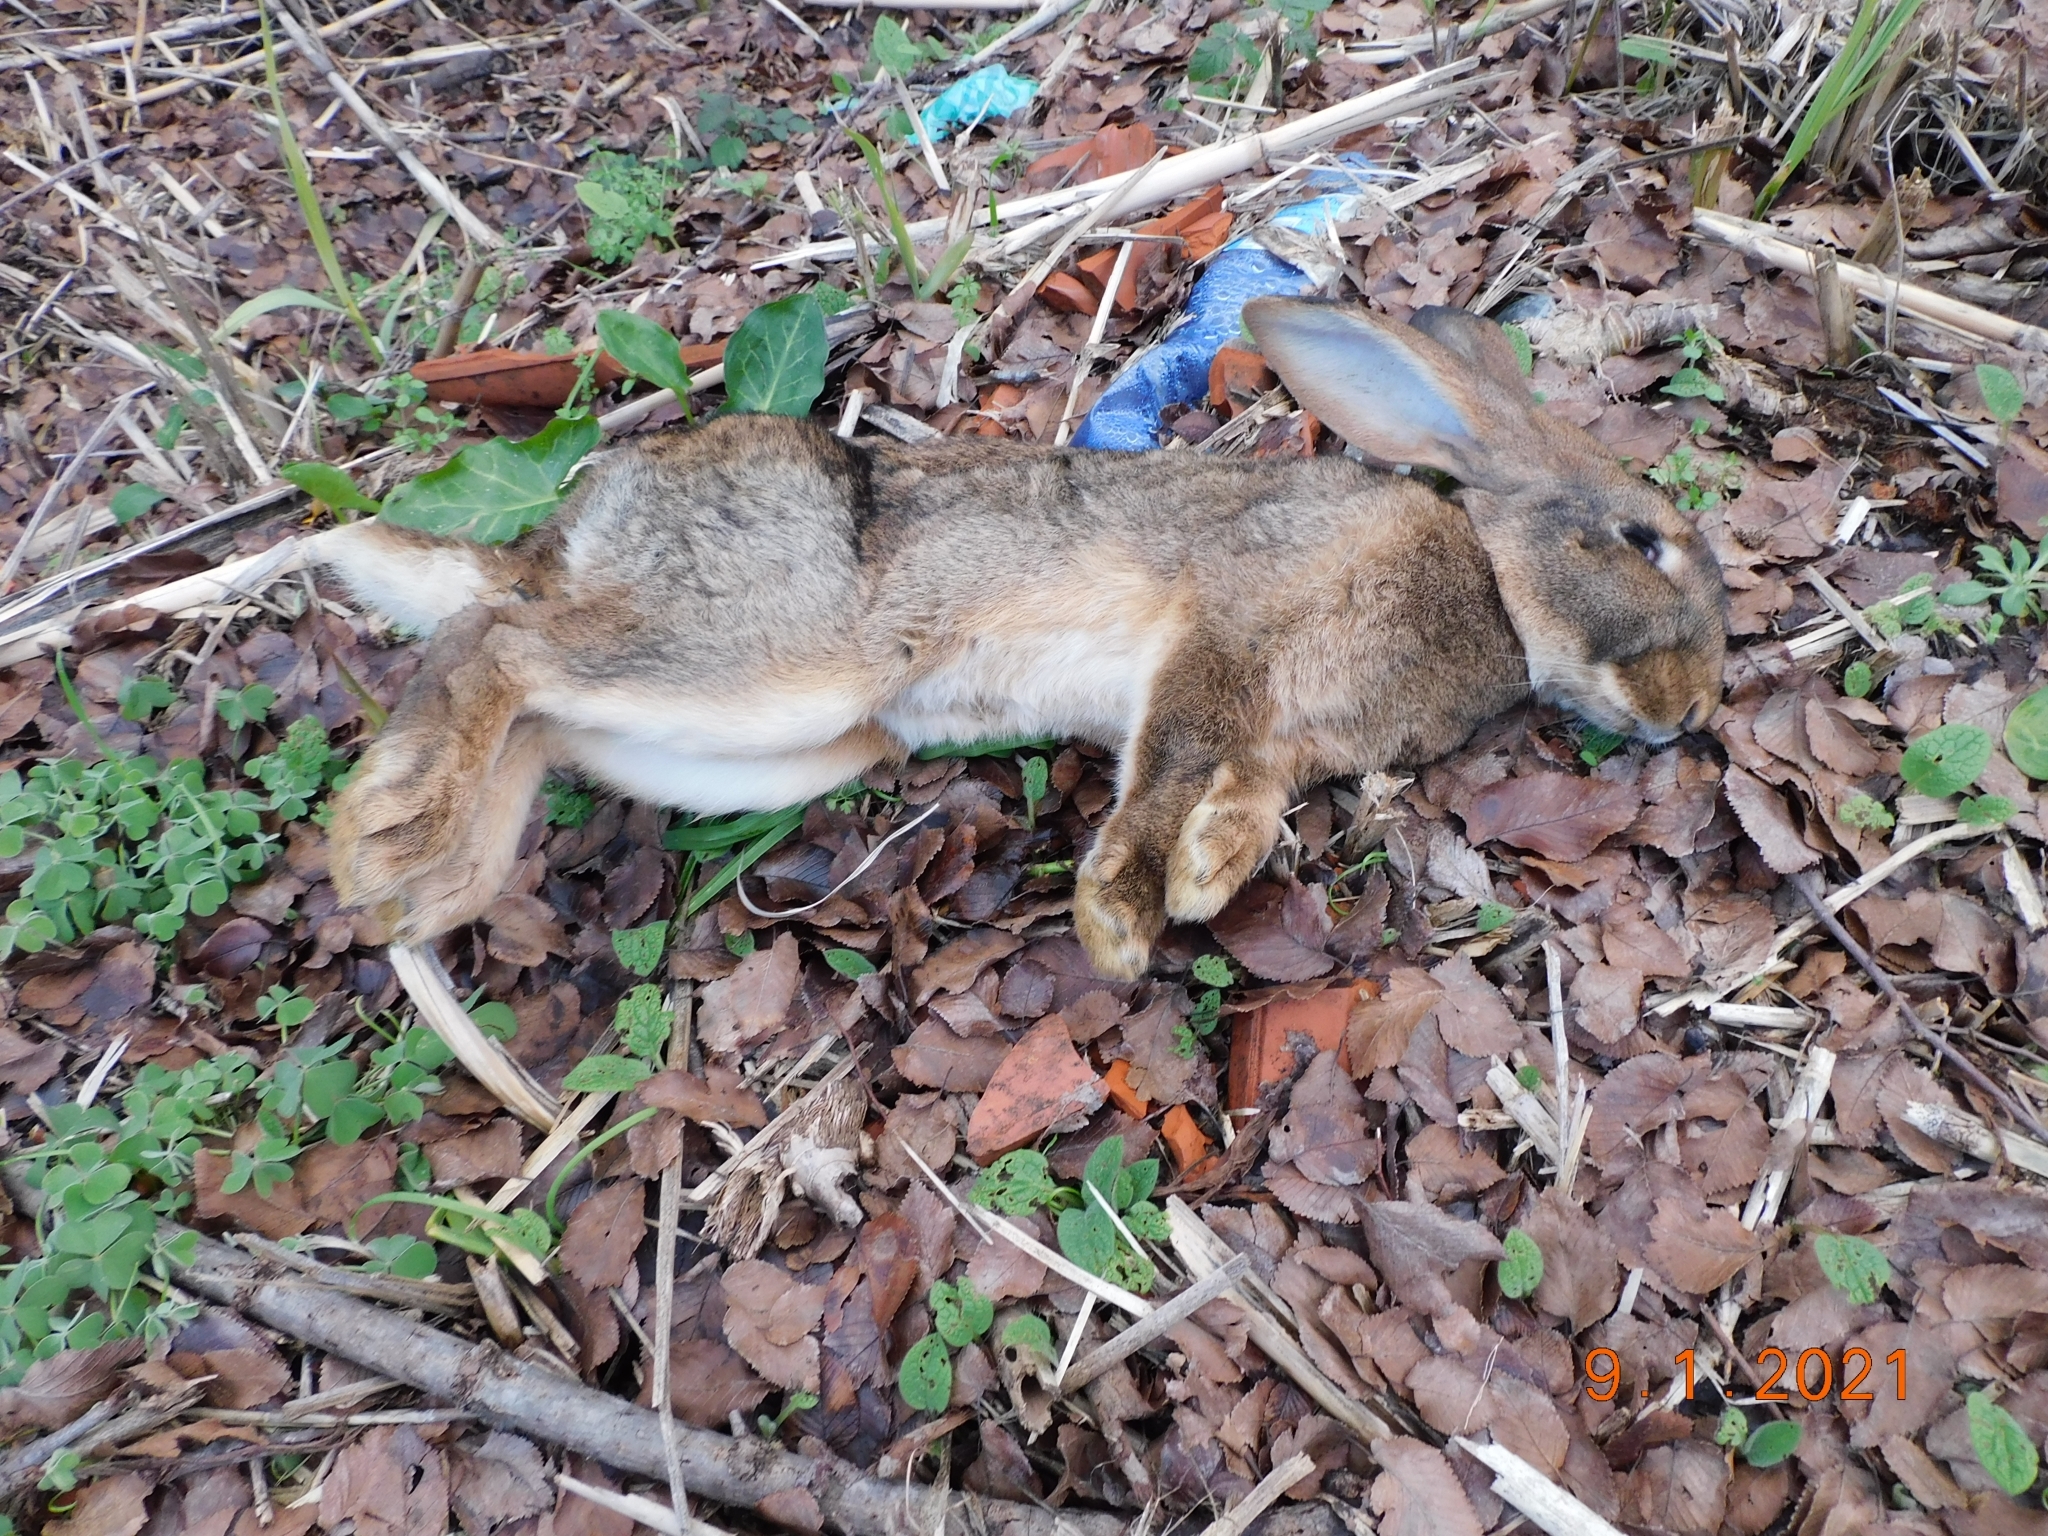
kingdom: Animalia
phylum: Chordata
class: Mammalia
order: Lagomorpha
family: Leporidae
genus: Oryctolagus
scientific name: Oryctolagus cuniculus
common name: European rabbit
